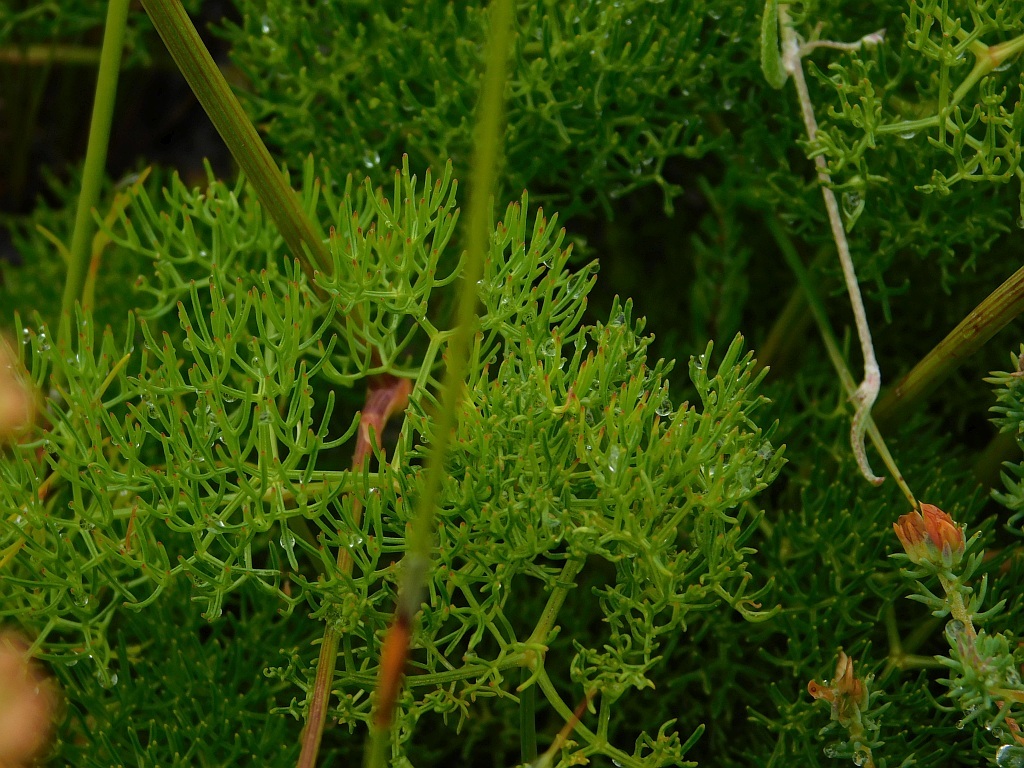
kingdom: Plantae
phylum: Tracheophyta
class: Magnoliopsida
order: Apiales
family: Apiaceae
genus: Nanobubon
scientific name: Nanobubon capillaceum
